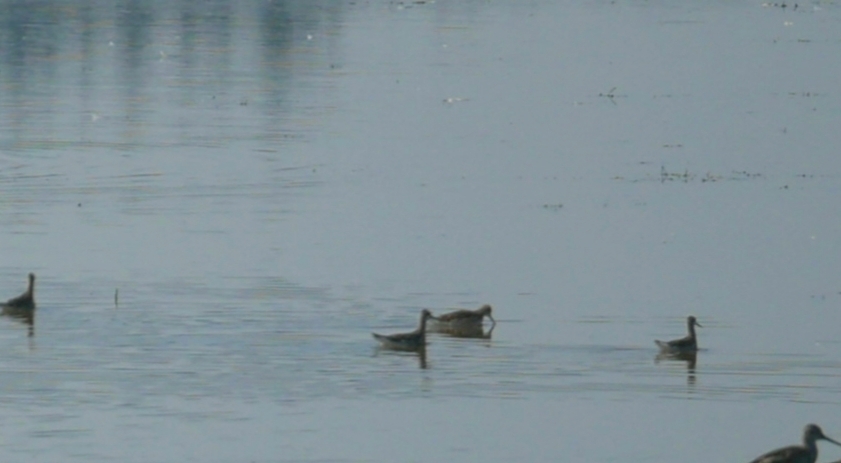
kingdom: Animalia
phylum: Chordata
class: Aves
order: Charadriiformes
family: Scolopacidae
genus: Phalaropus
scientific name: Phalaropus tricolor
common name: Wilson's phalarope
